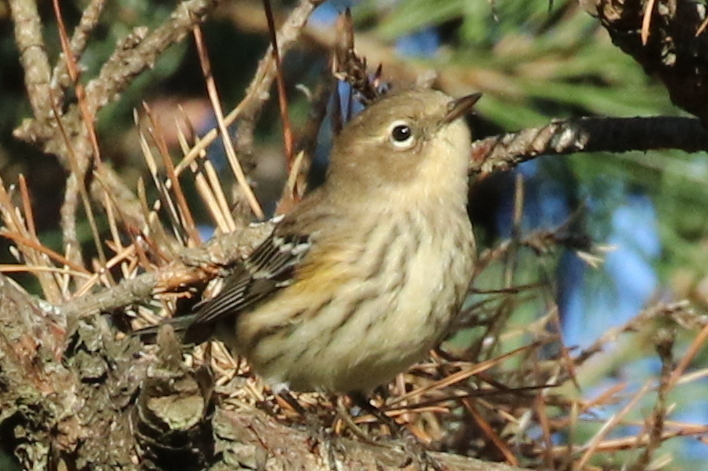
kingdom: Animalia
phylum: Chordata
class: Aves
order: Passeriformes
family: Parulidae
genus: Setophaga
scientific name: Setophaga coronata
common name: Myrtle warbler
